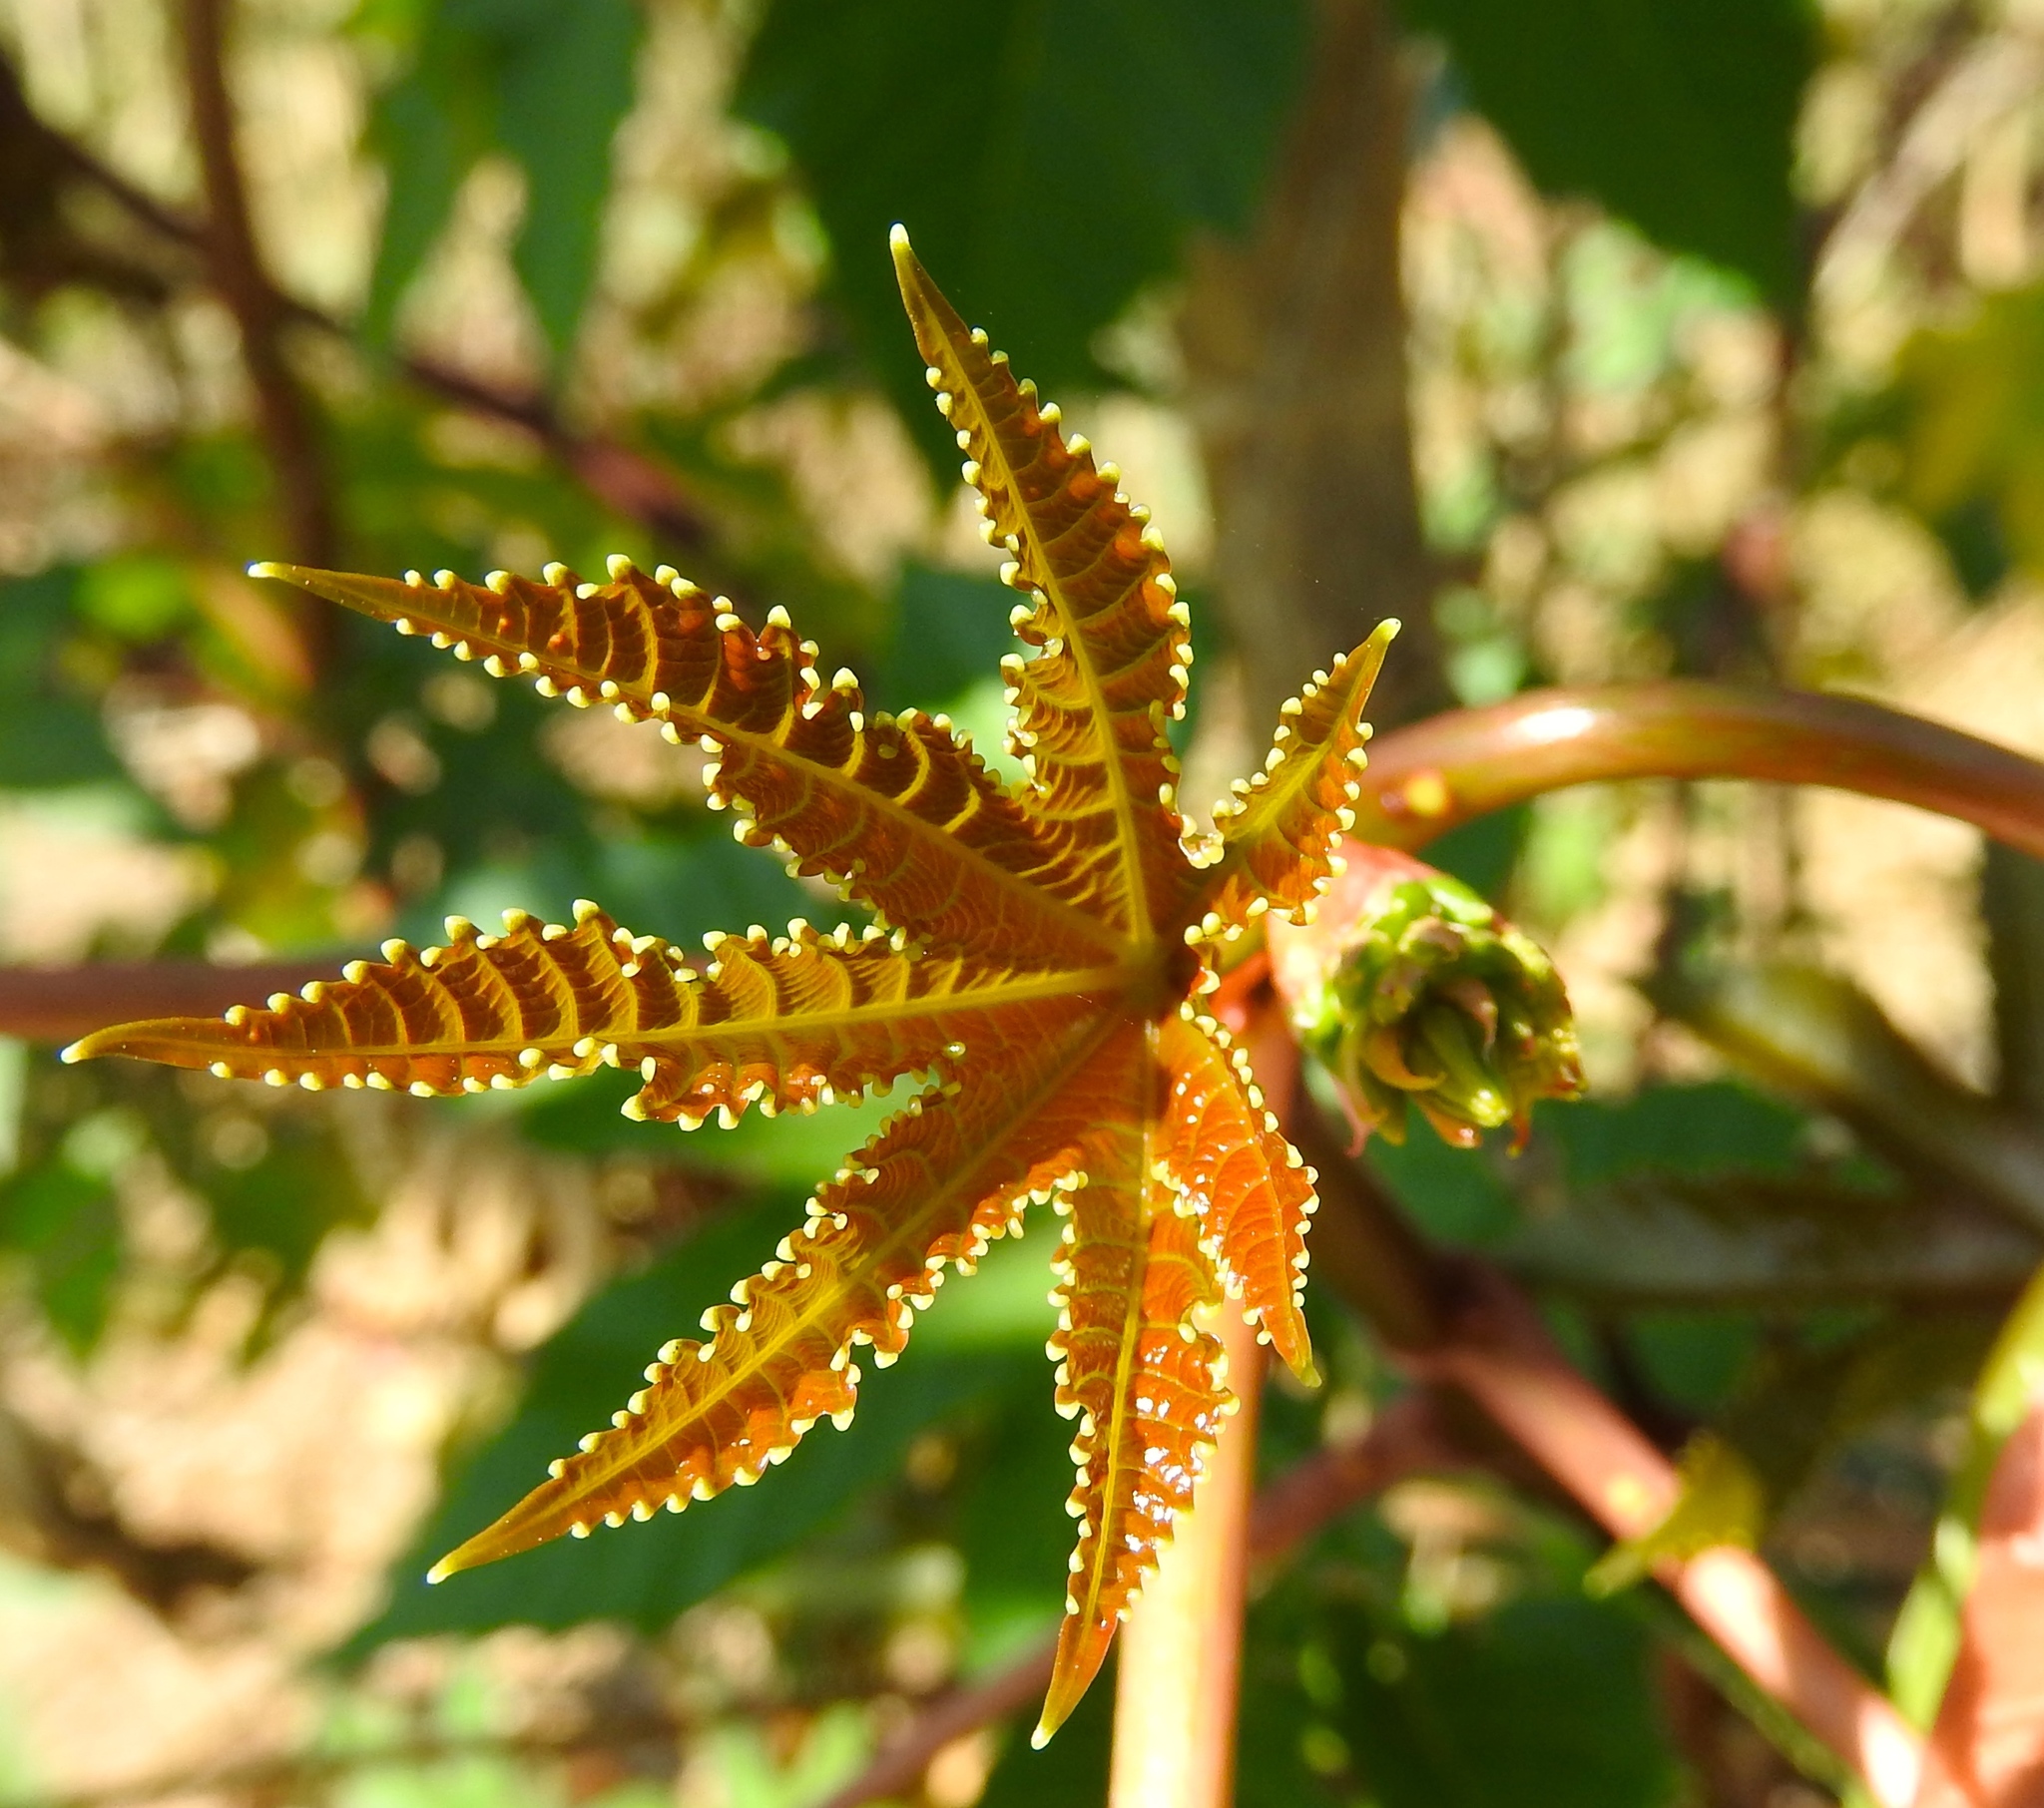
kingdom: Plantae
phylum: Tracheophyta
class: Magnoliopsida
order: Malpighiales
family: Euphorbiaceae
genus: Ricinus
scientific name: Ricinus communis
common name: Castor-oil-plant
